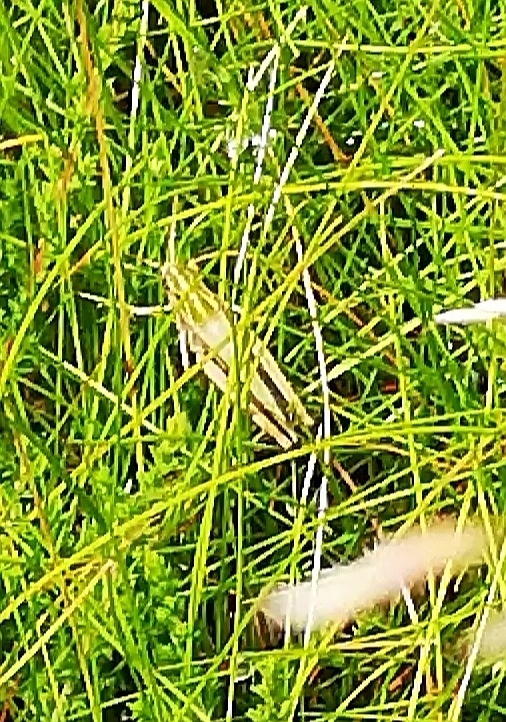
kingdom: Animalia
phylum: Arthropoda
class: Insecta
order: Orthoptera
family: Acrididae
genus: Omocestus
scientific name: Omocestus viridulus
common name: Common green grasshopper
